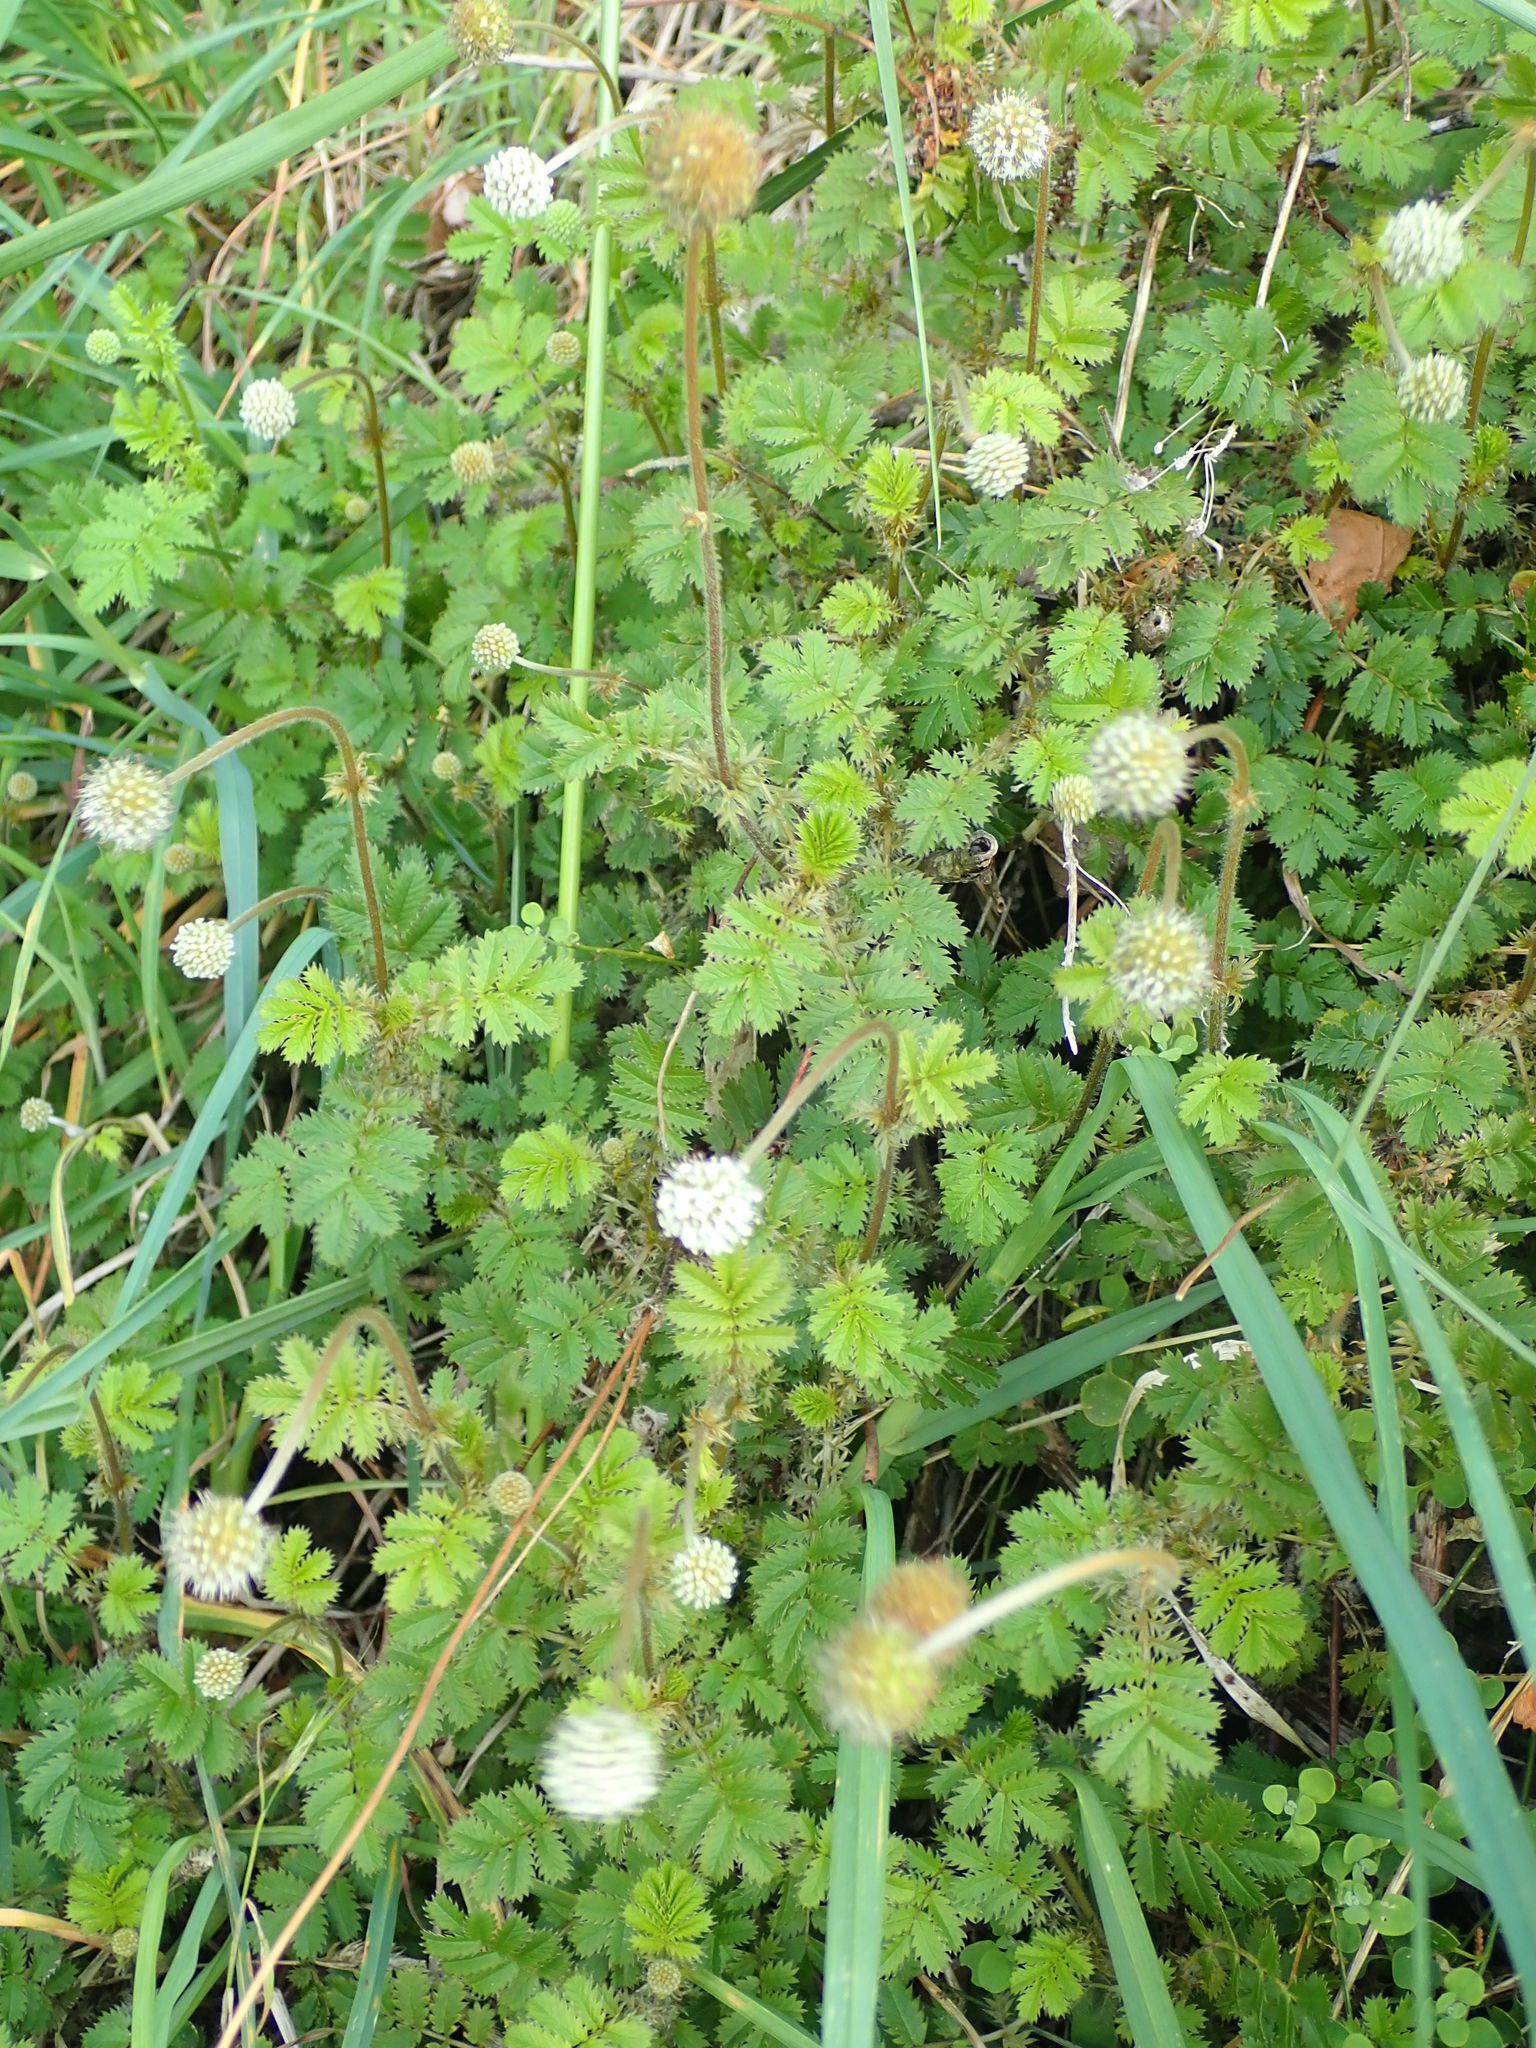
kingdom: Plantae
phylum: Tracheophyta
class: Magnoliopsida
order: Rosales
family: Rosaceae
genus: Acaena
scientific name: Acaena anserinifolia
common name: Bronze pirri-pirri-bur
